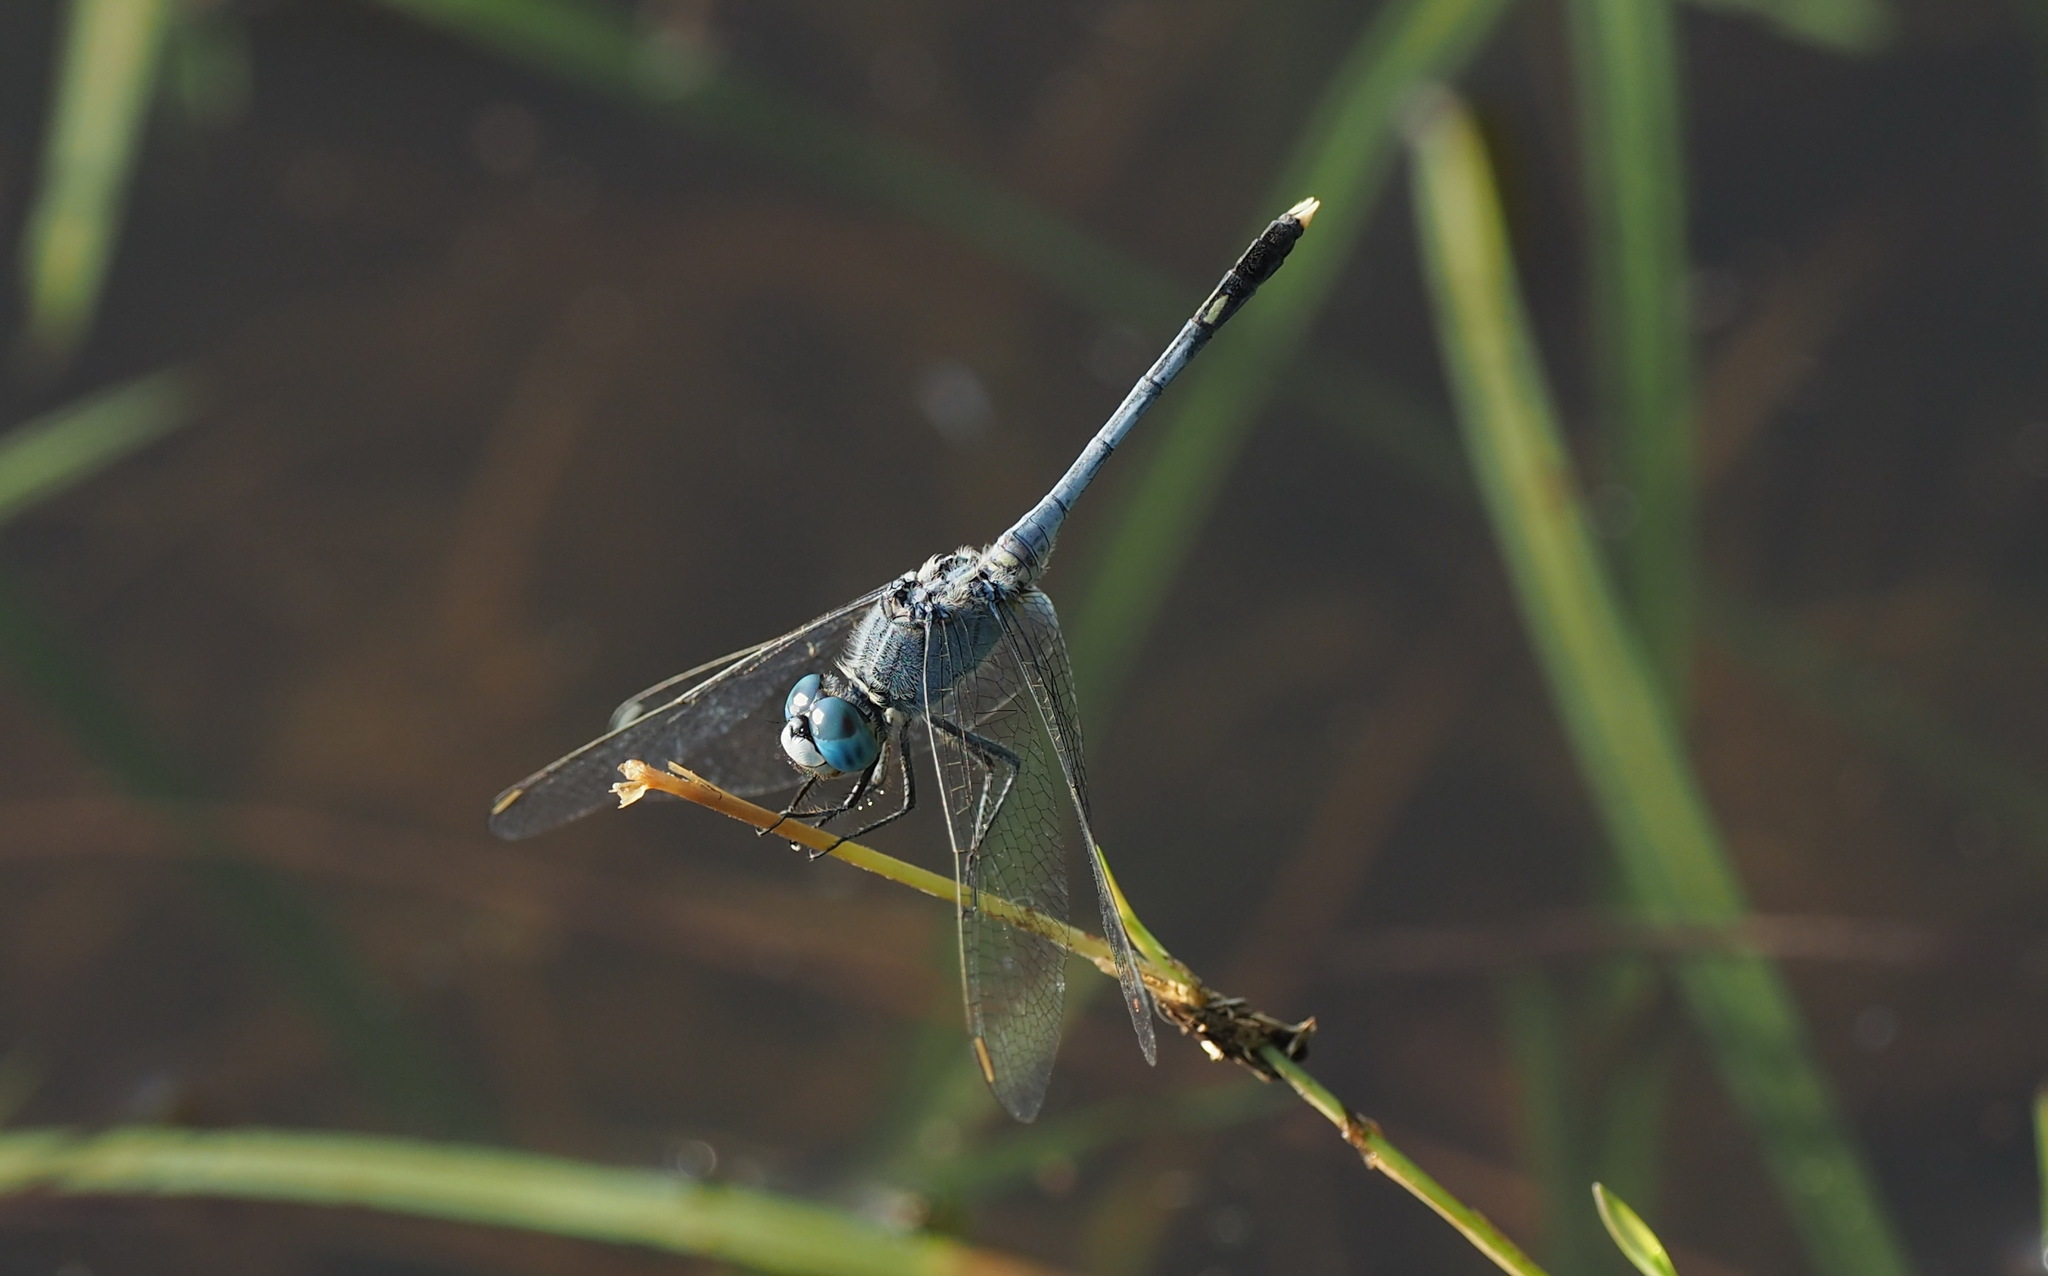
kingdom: Animalia
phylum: Arthropoda
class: Insecta
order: Odonata
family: Libellulidae
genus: Diplacodes
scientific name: Diplacodes trivialis
